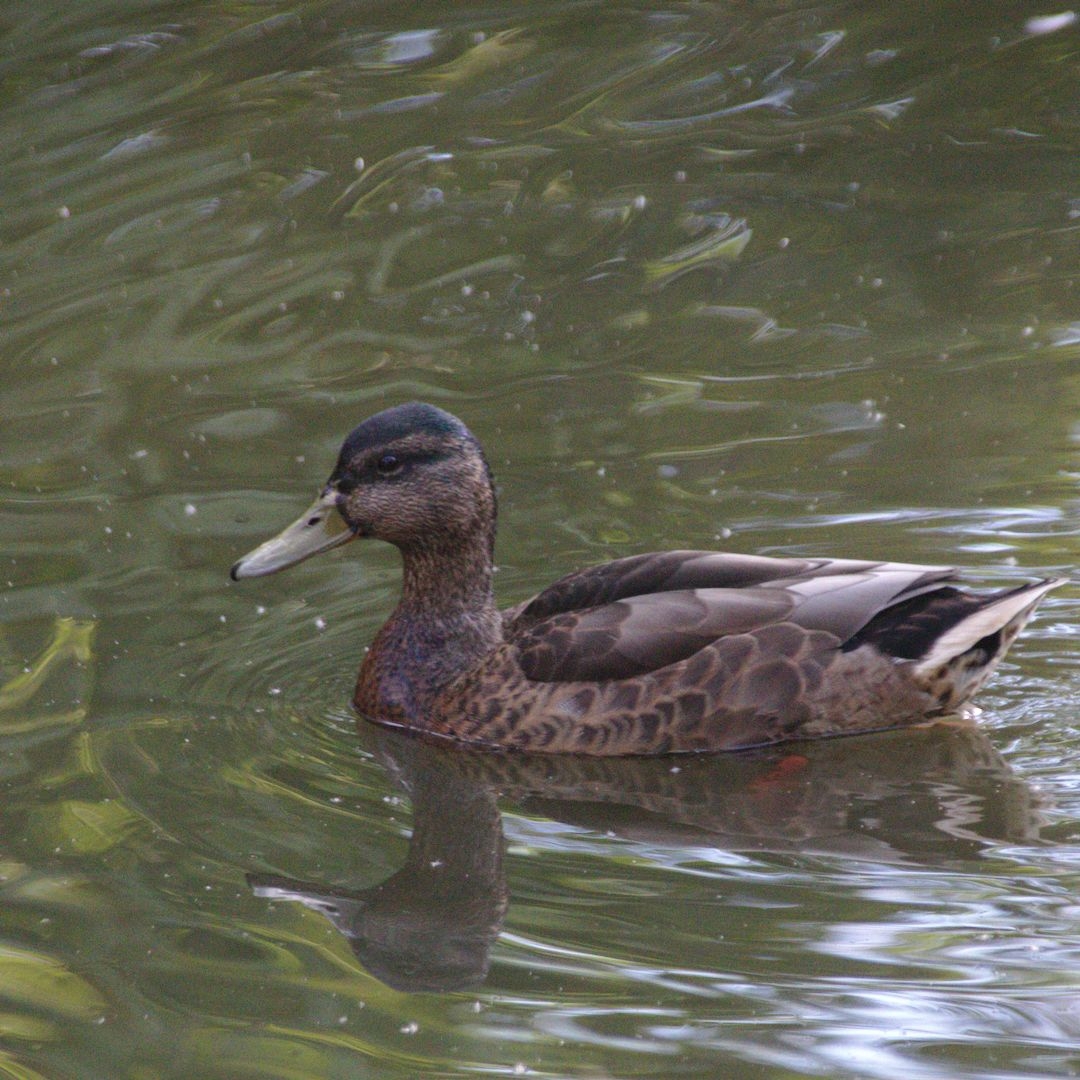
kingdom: Animalia
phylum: Chordata
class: Aves
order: Anseriformes
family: Anatidae
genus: Anas
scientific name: Anas platyrhynchos
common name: Mallard
